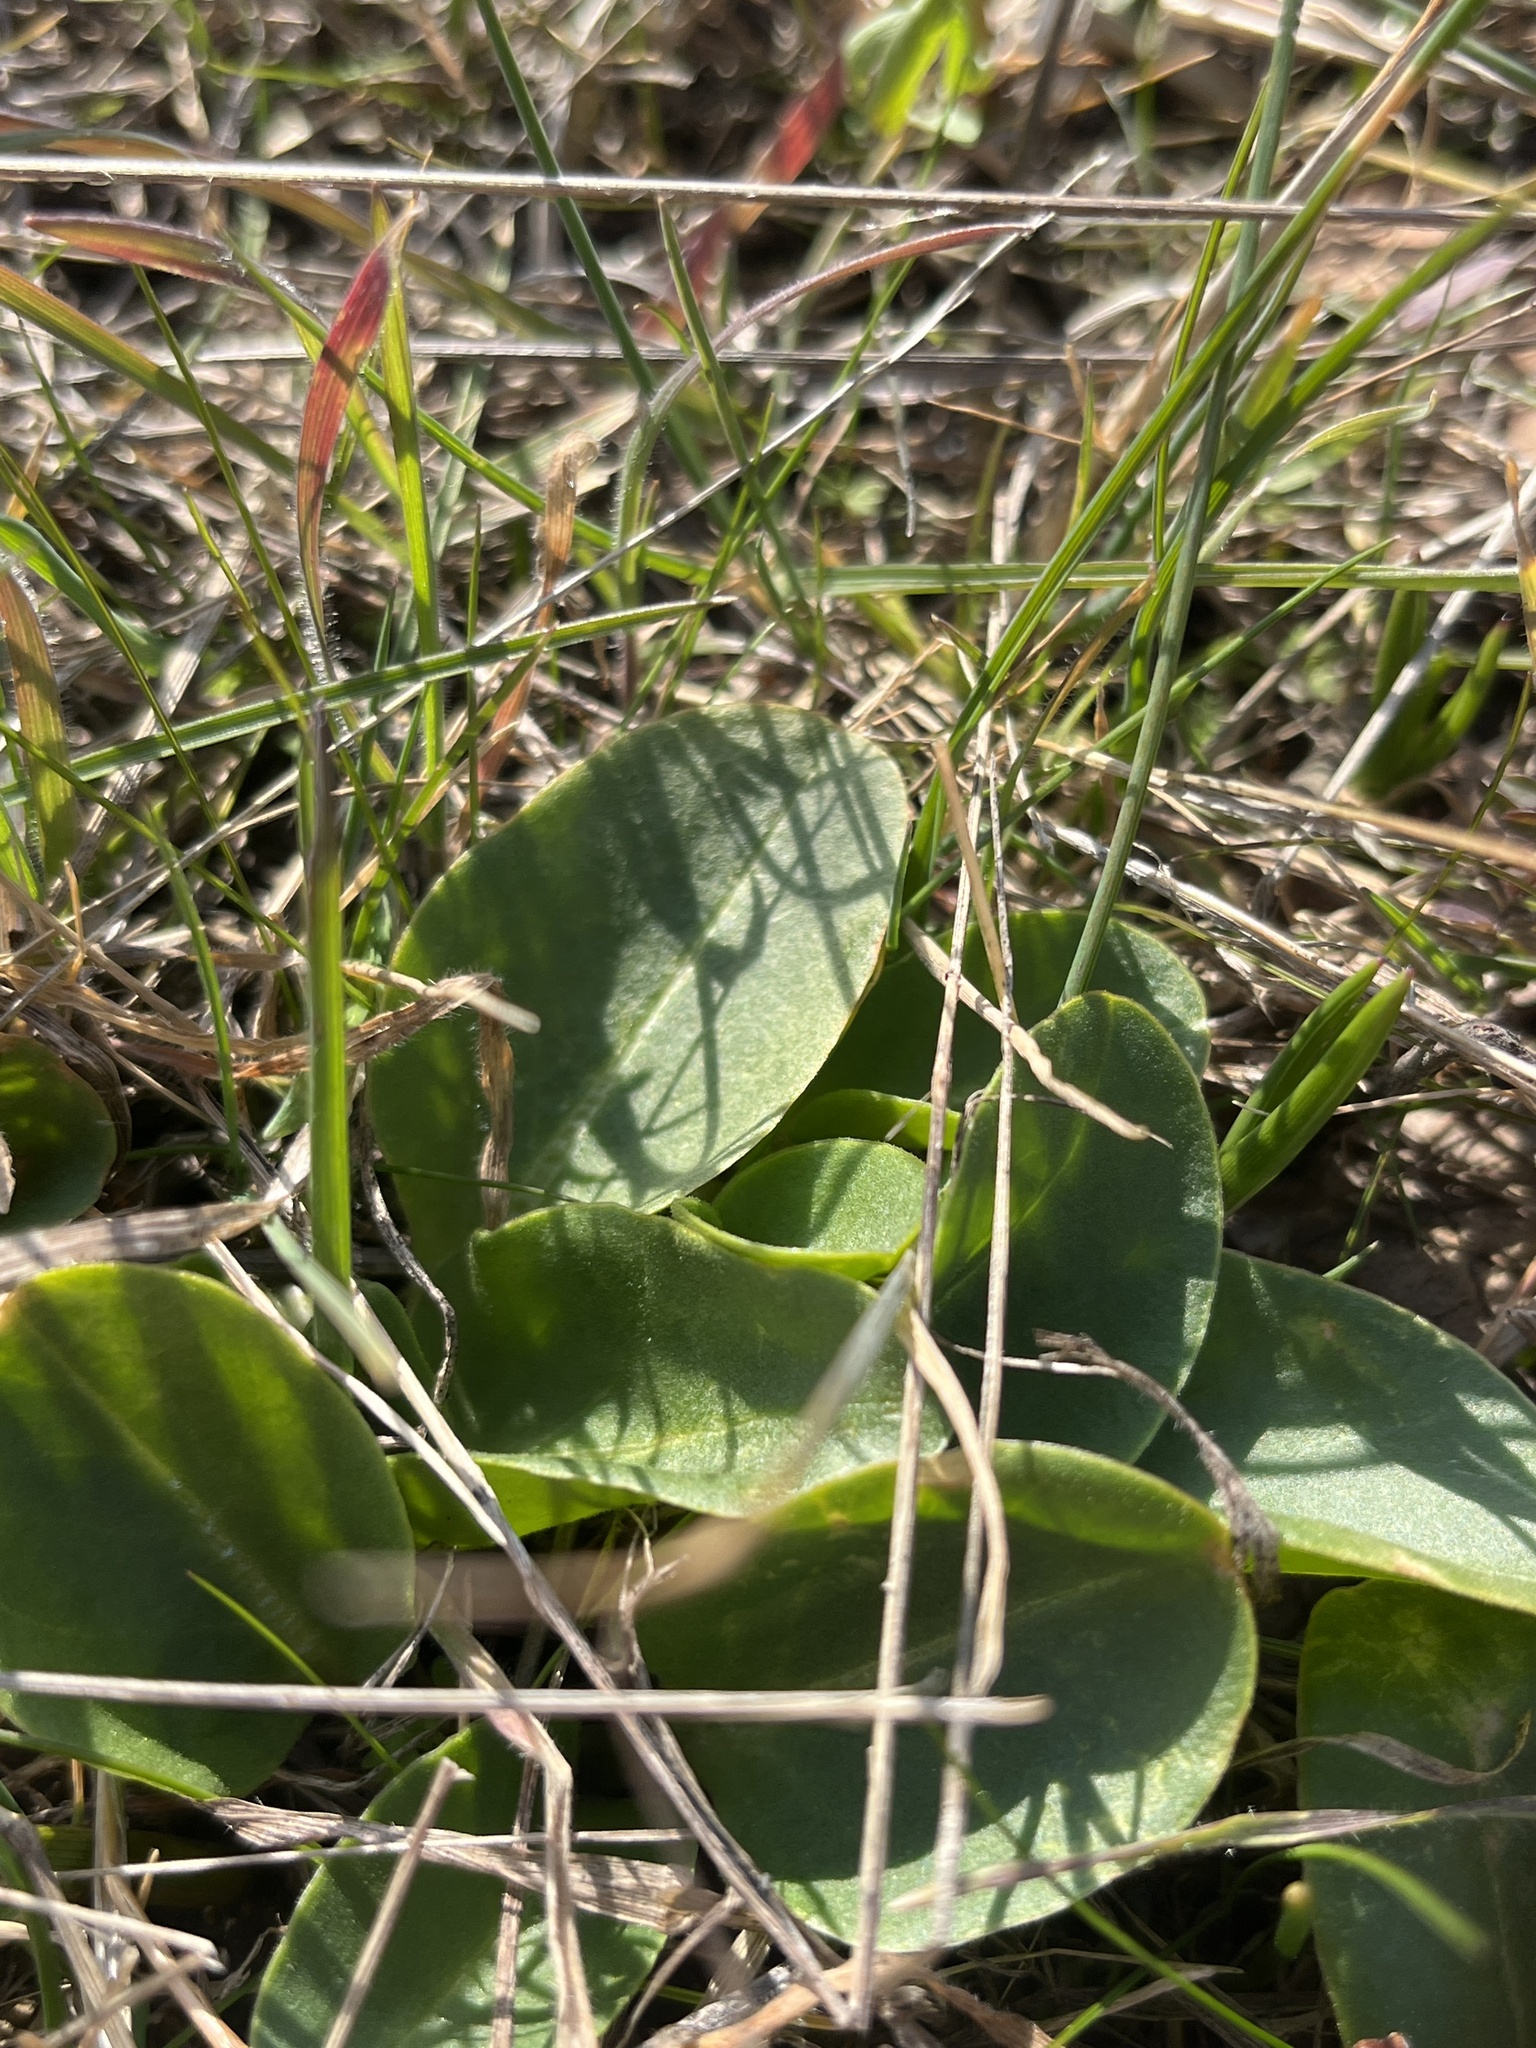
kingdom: Plantae
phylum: Tracheophyta
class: Magnoliopsida
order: Ericales
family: Primulaceae
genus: Dodecatheon
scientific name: Dodecatheon hendersonii
